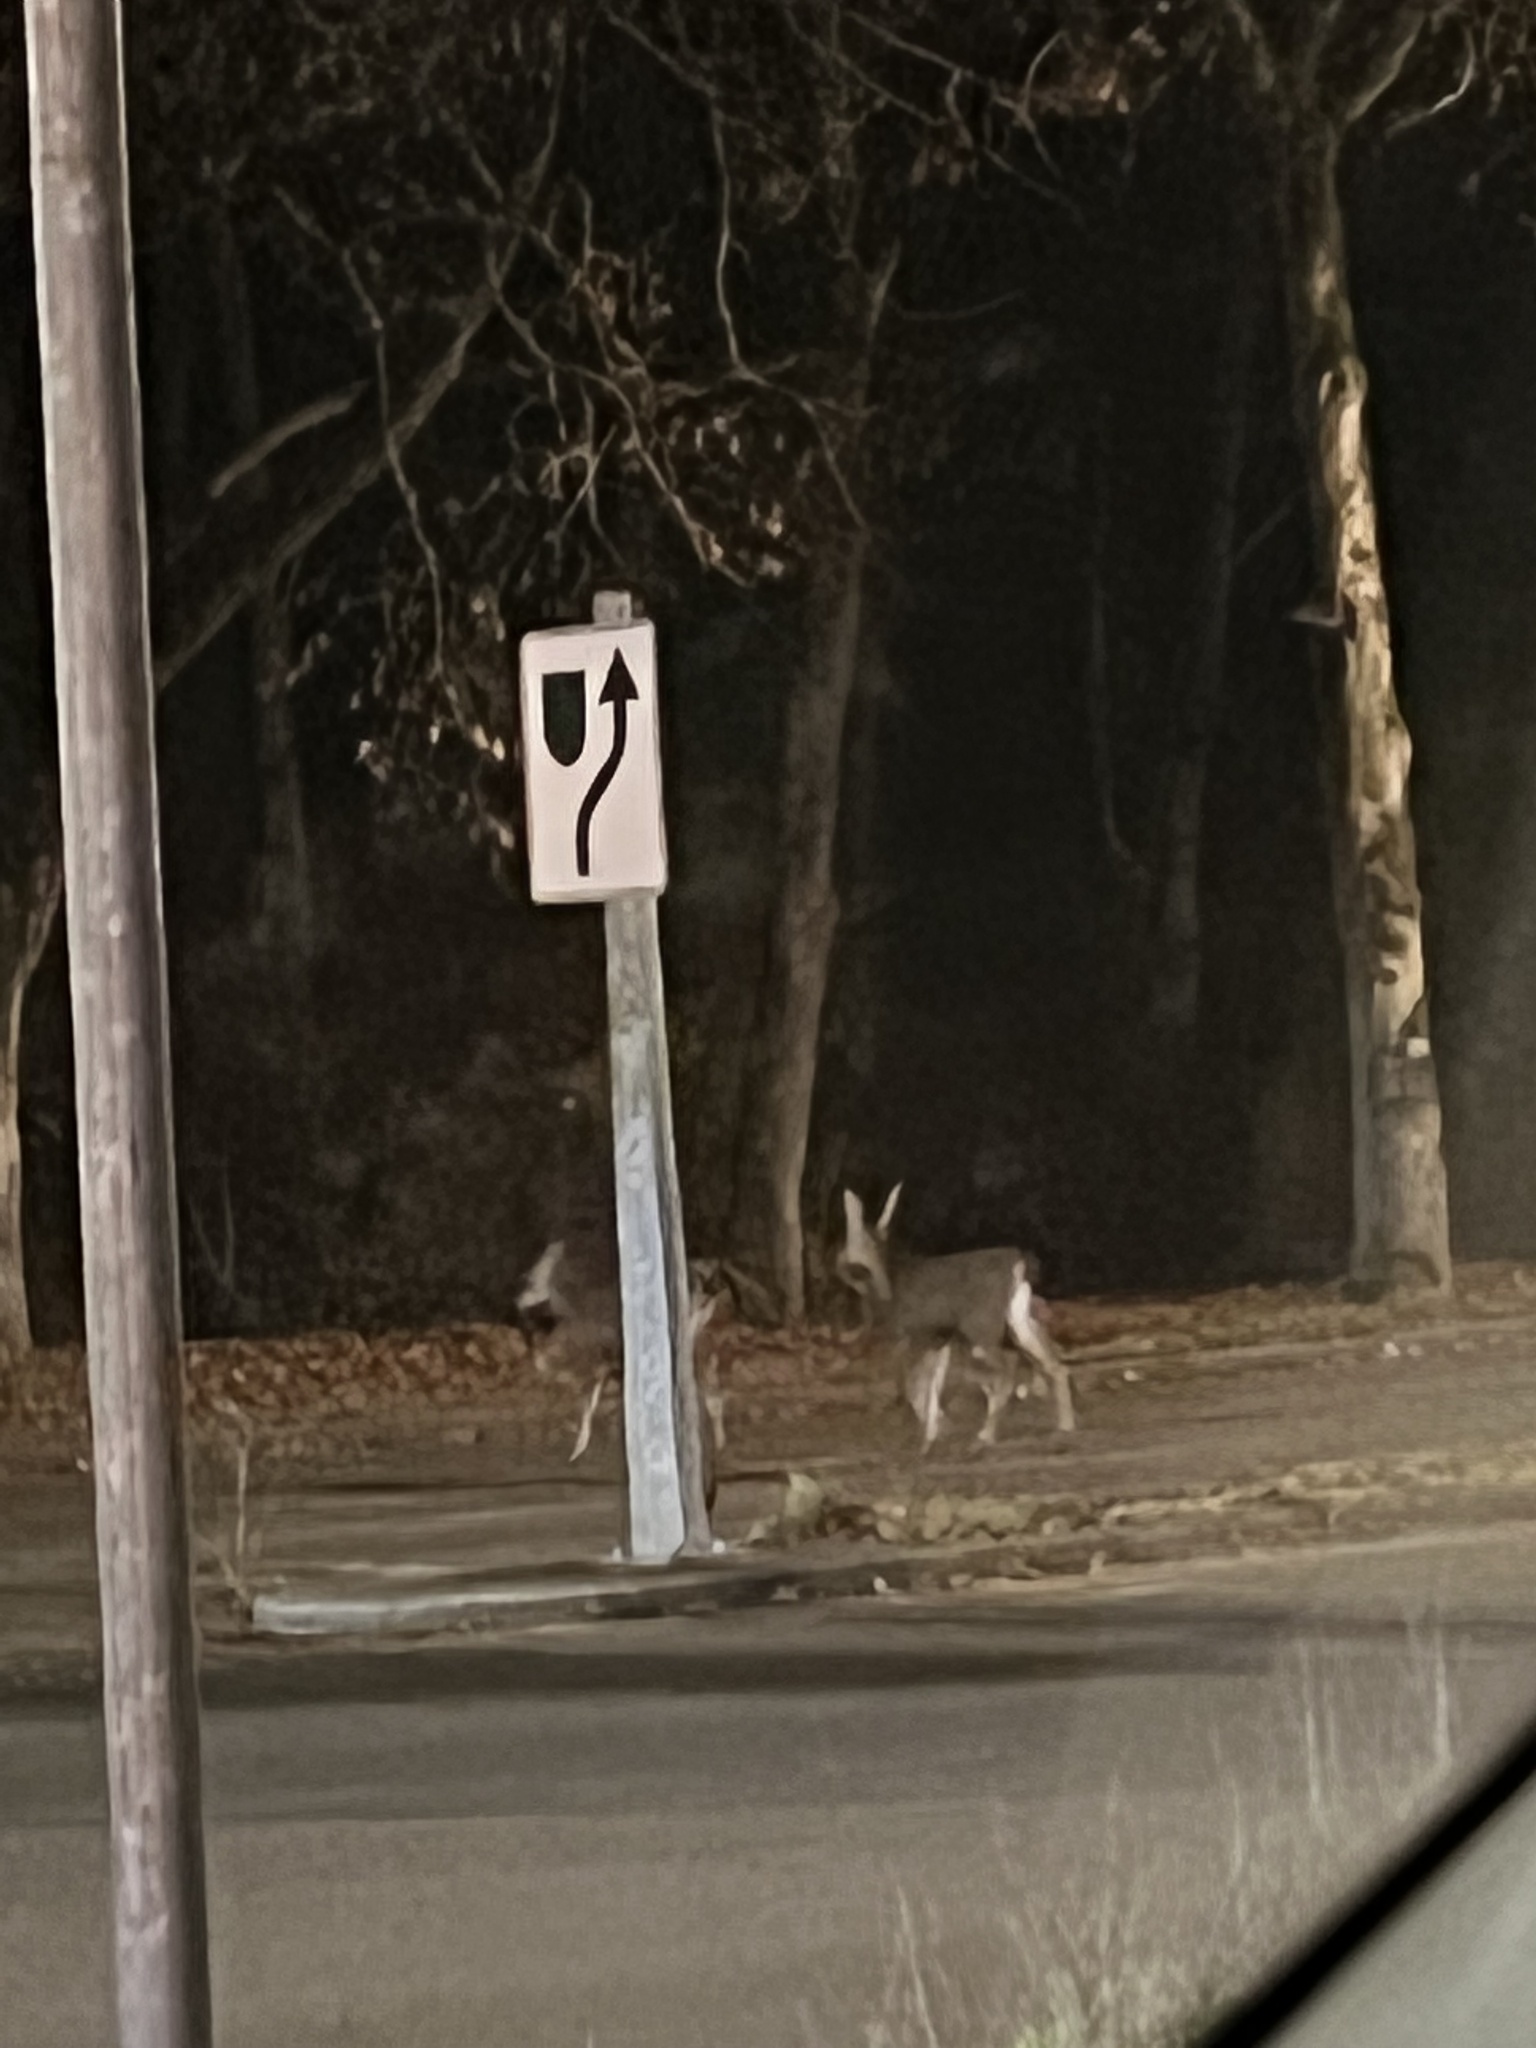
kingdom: Animalia
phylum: Chordata
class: Mammalia
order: Artiodactyla
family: Cervidae
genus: Odocoileus
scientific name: Odocoileus hemionus
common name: Mule deer
